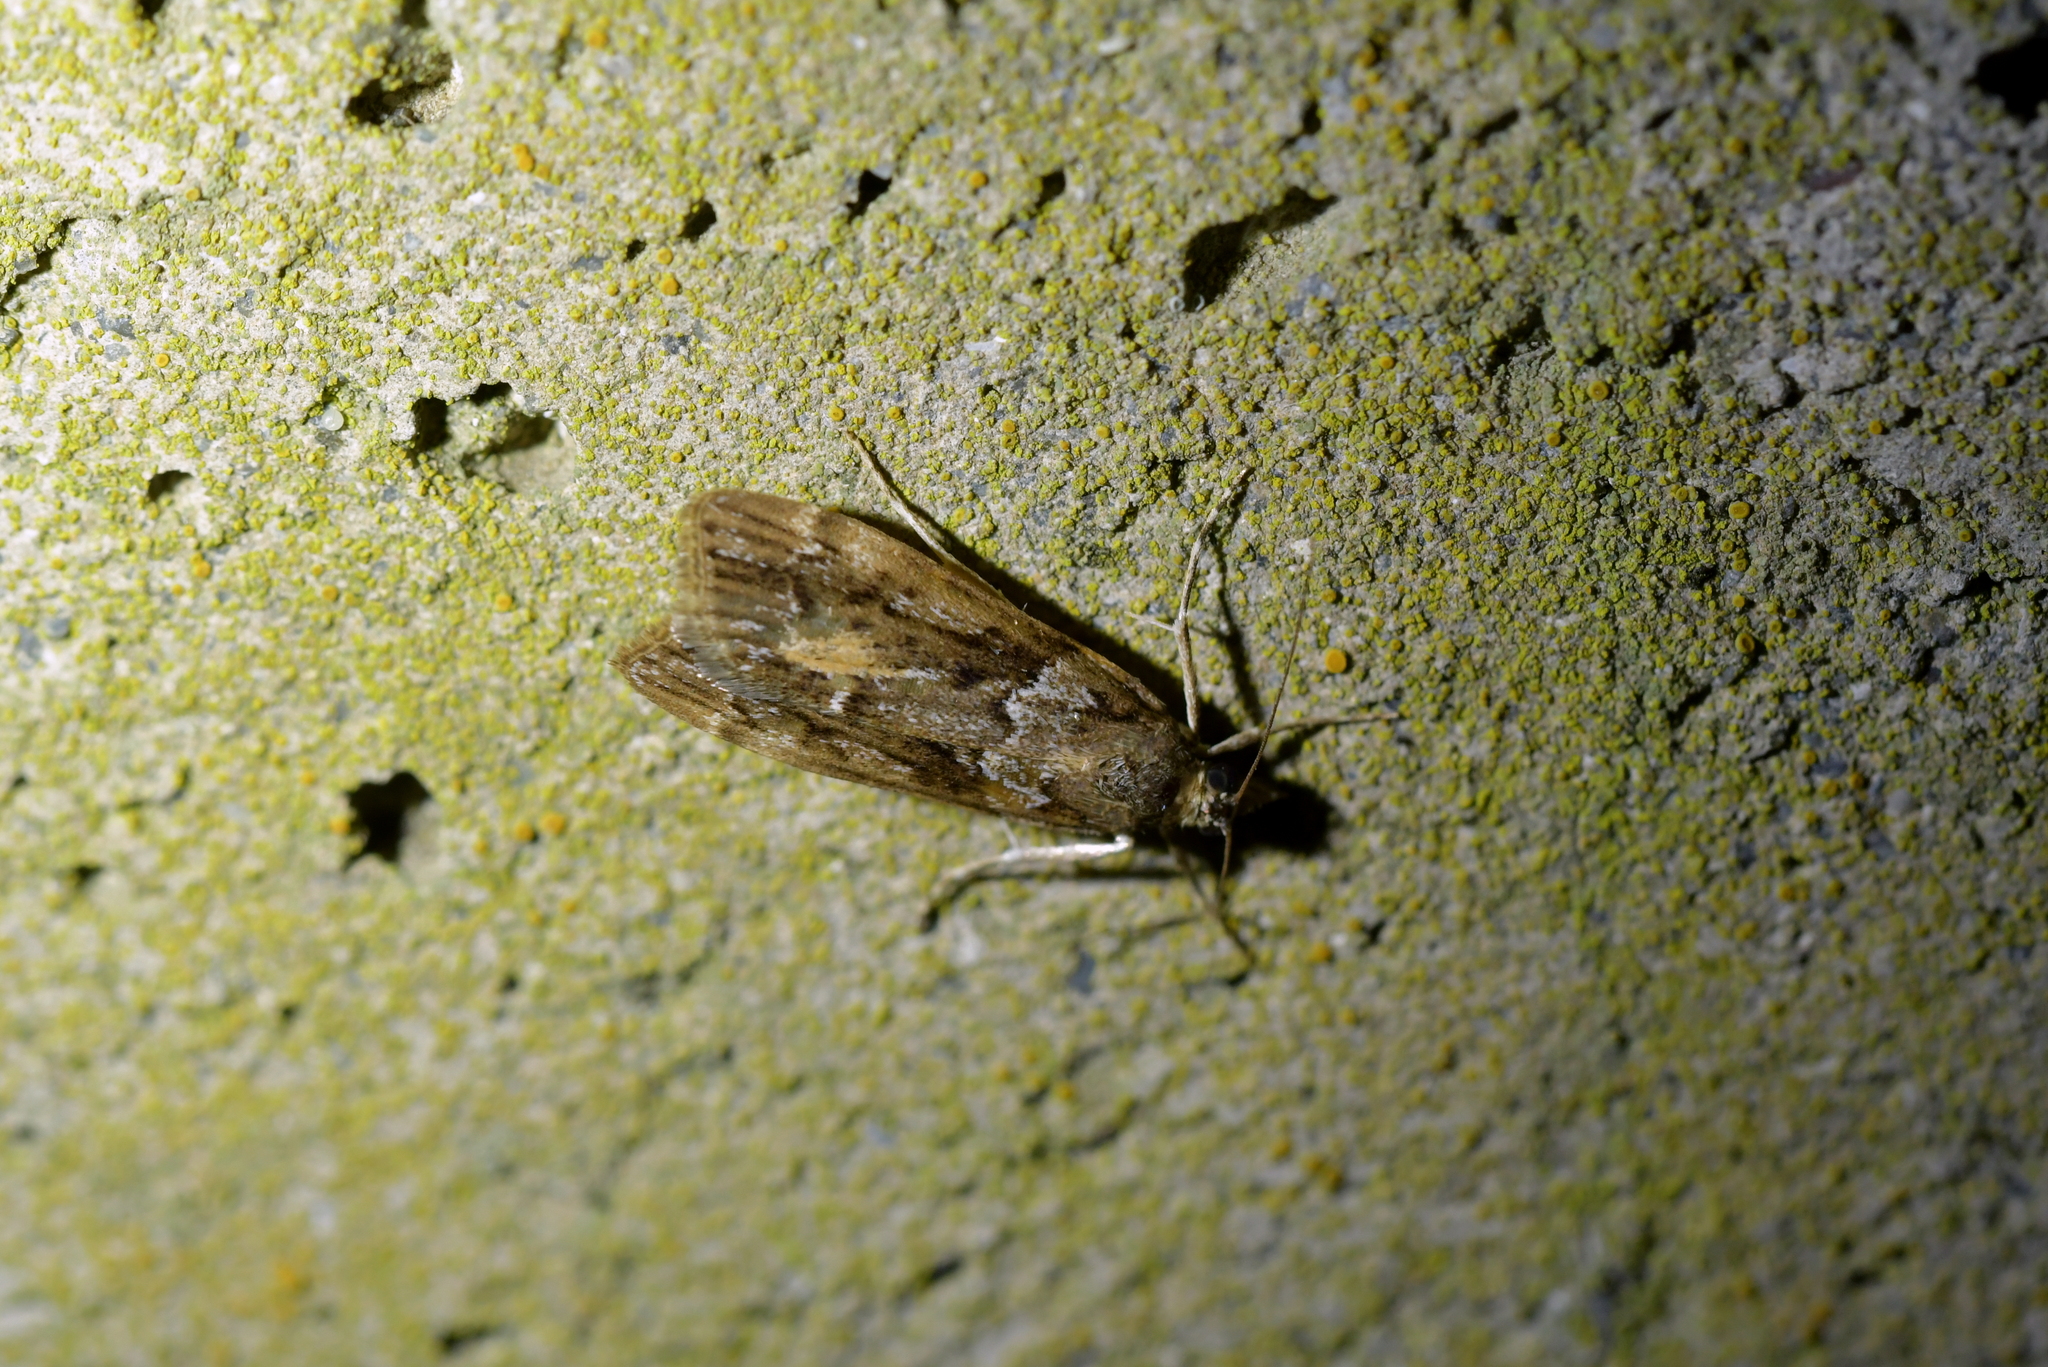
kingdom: Animalia
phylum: Arthropoda
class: Insecta
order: Lepidoptera
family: Crambidae
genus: Eudonia
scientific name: Eudonia submarginalis
